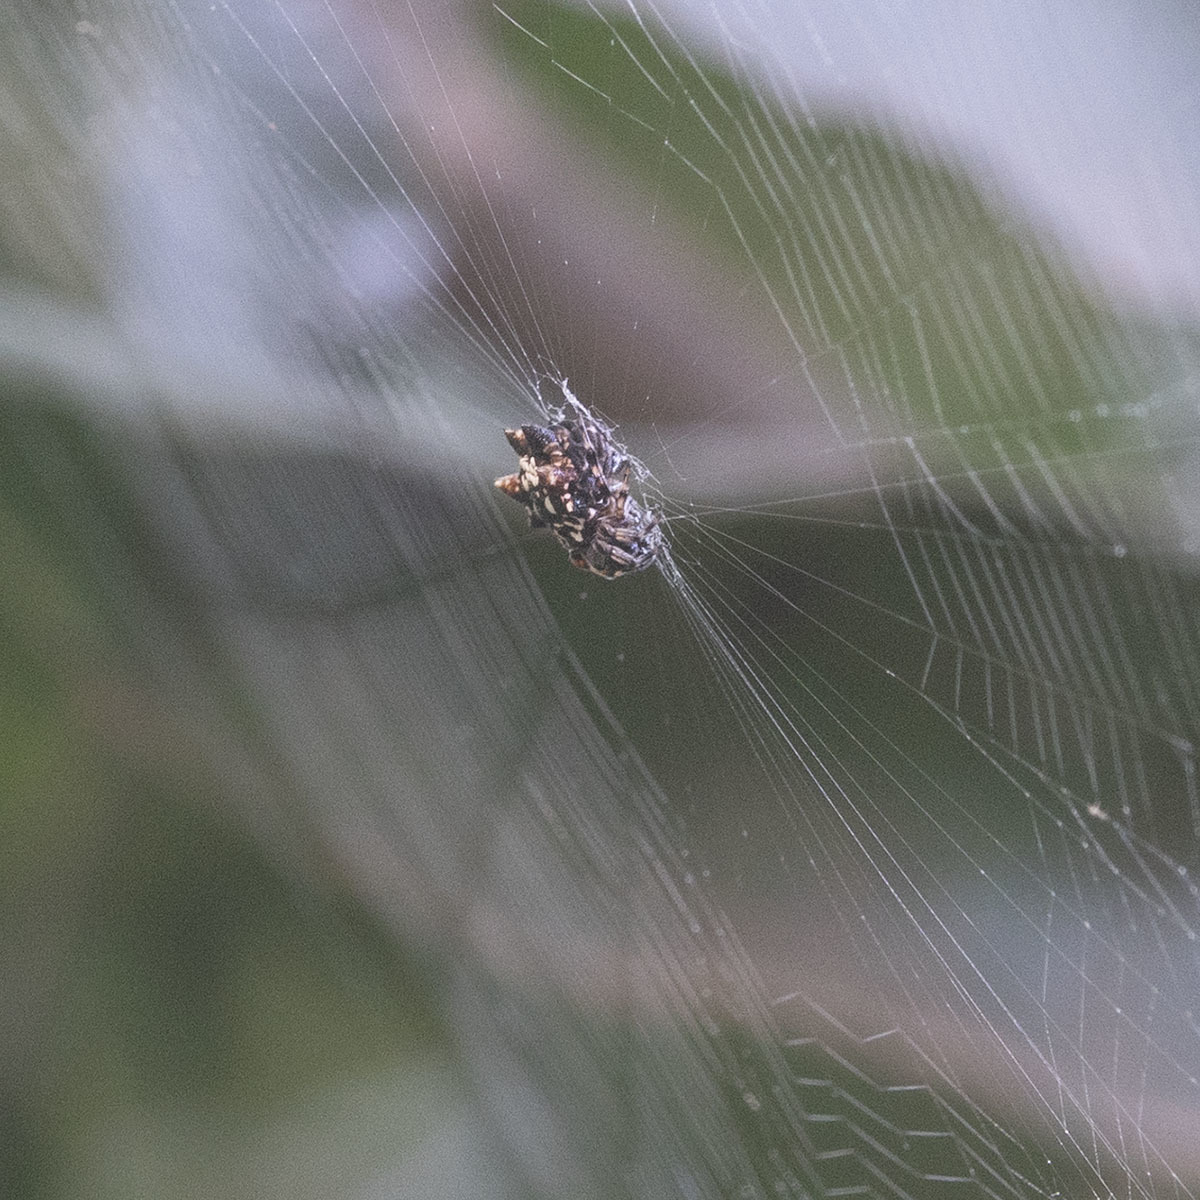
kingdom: Animalia
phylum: Arthropoda
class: Arachnida
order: Araneae
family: Araneidae
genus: Thelacantha
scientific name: Thelacantha brevispina
